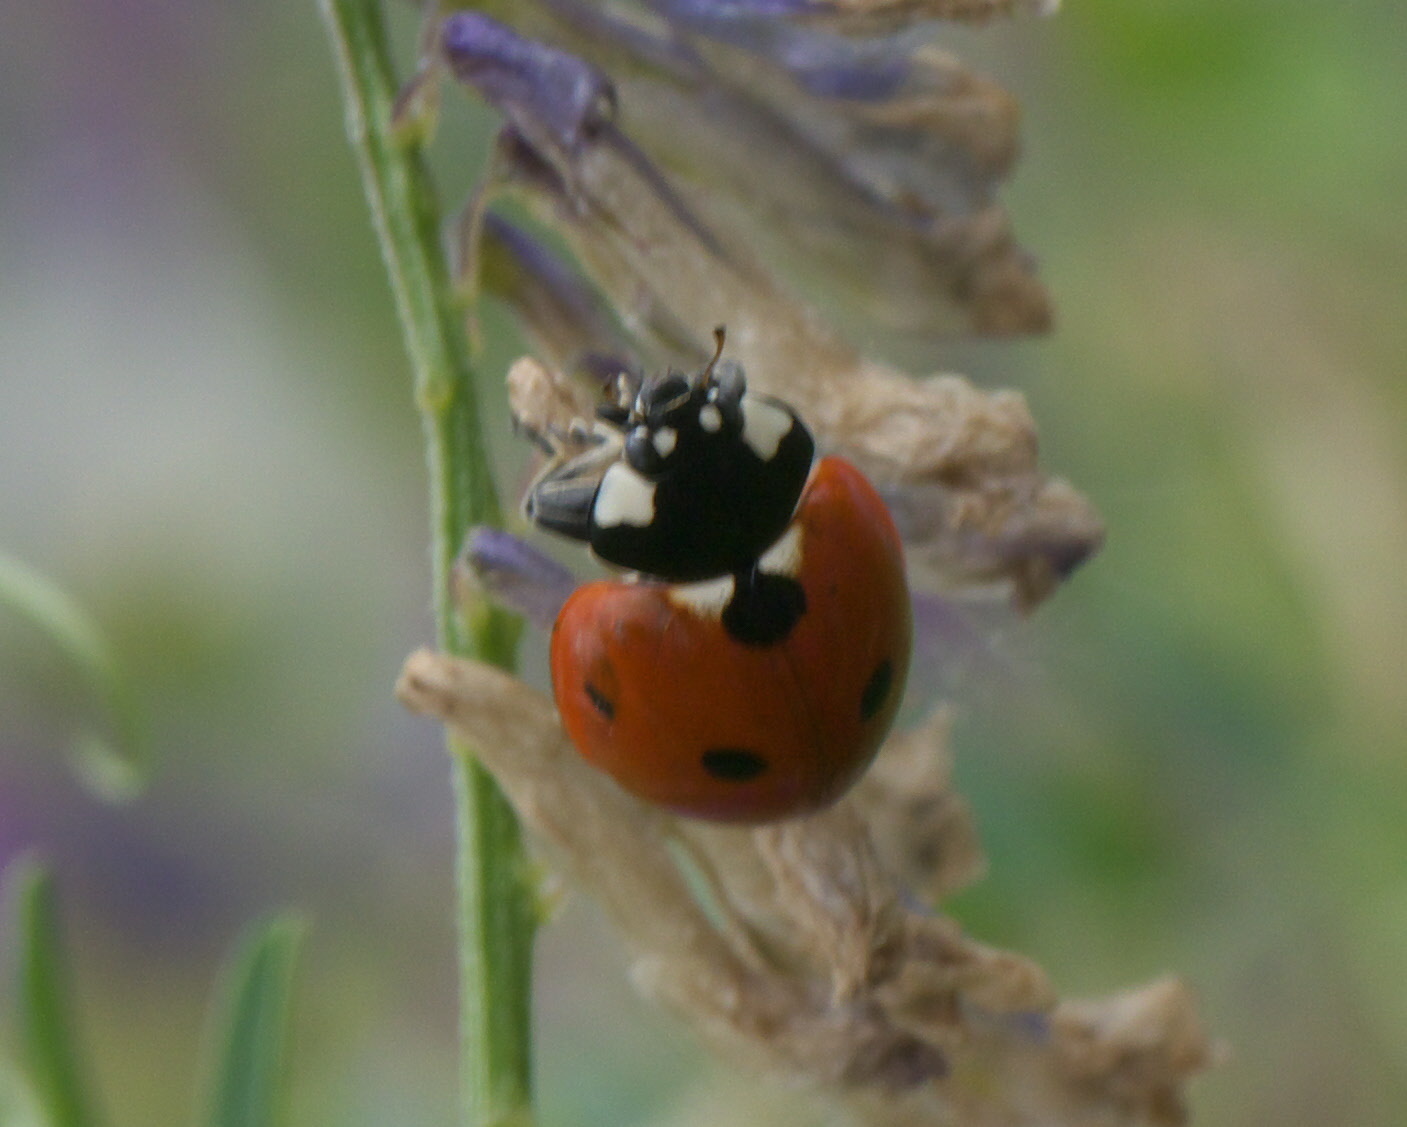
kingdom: Animalia
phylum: Arthropoda
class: Insecta
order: Coleoptera
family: Coccinellidae
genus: Coccinella
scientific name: Coccinella septempunctata
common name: Sevenspotted lady beetle
